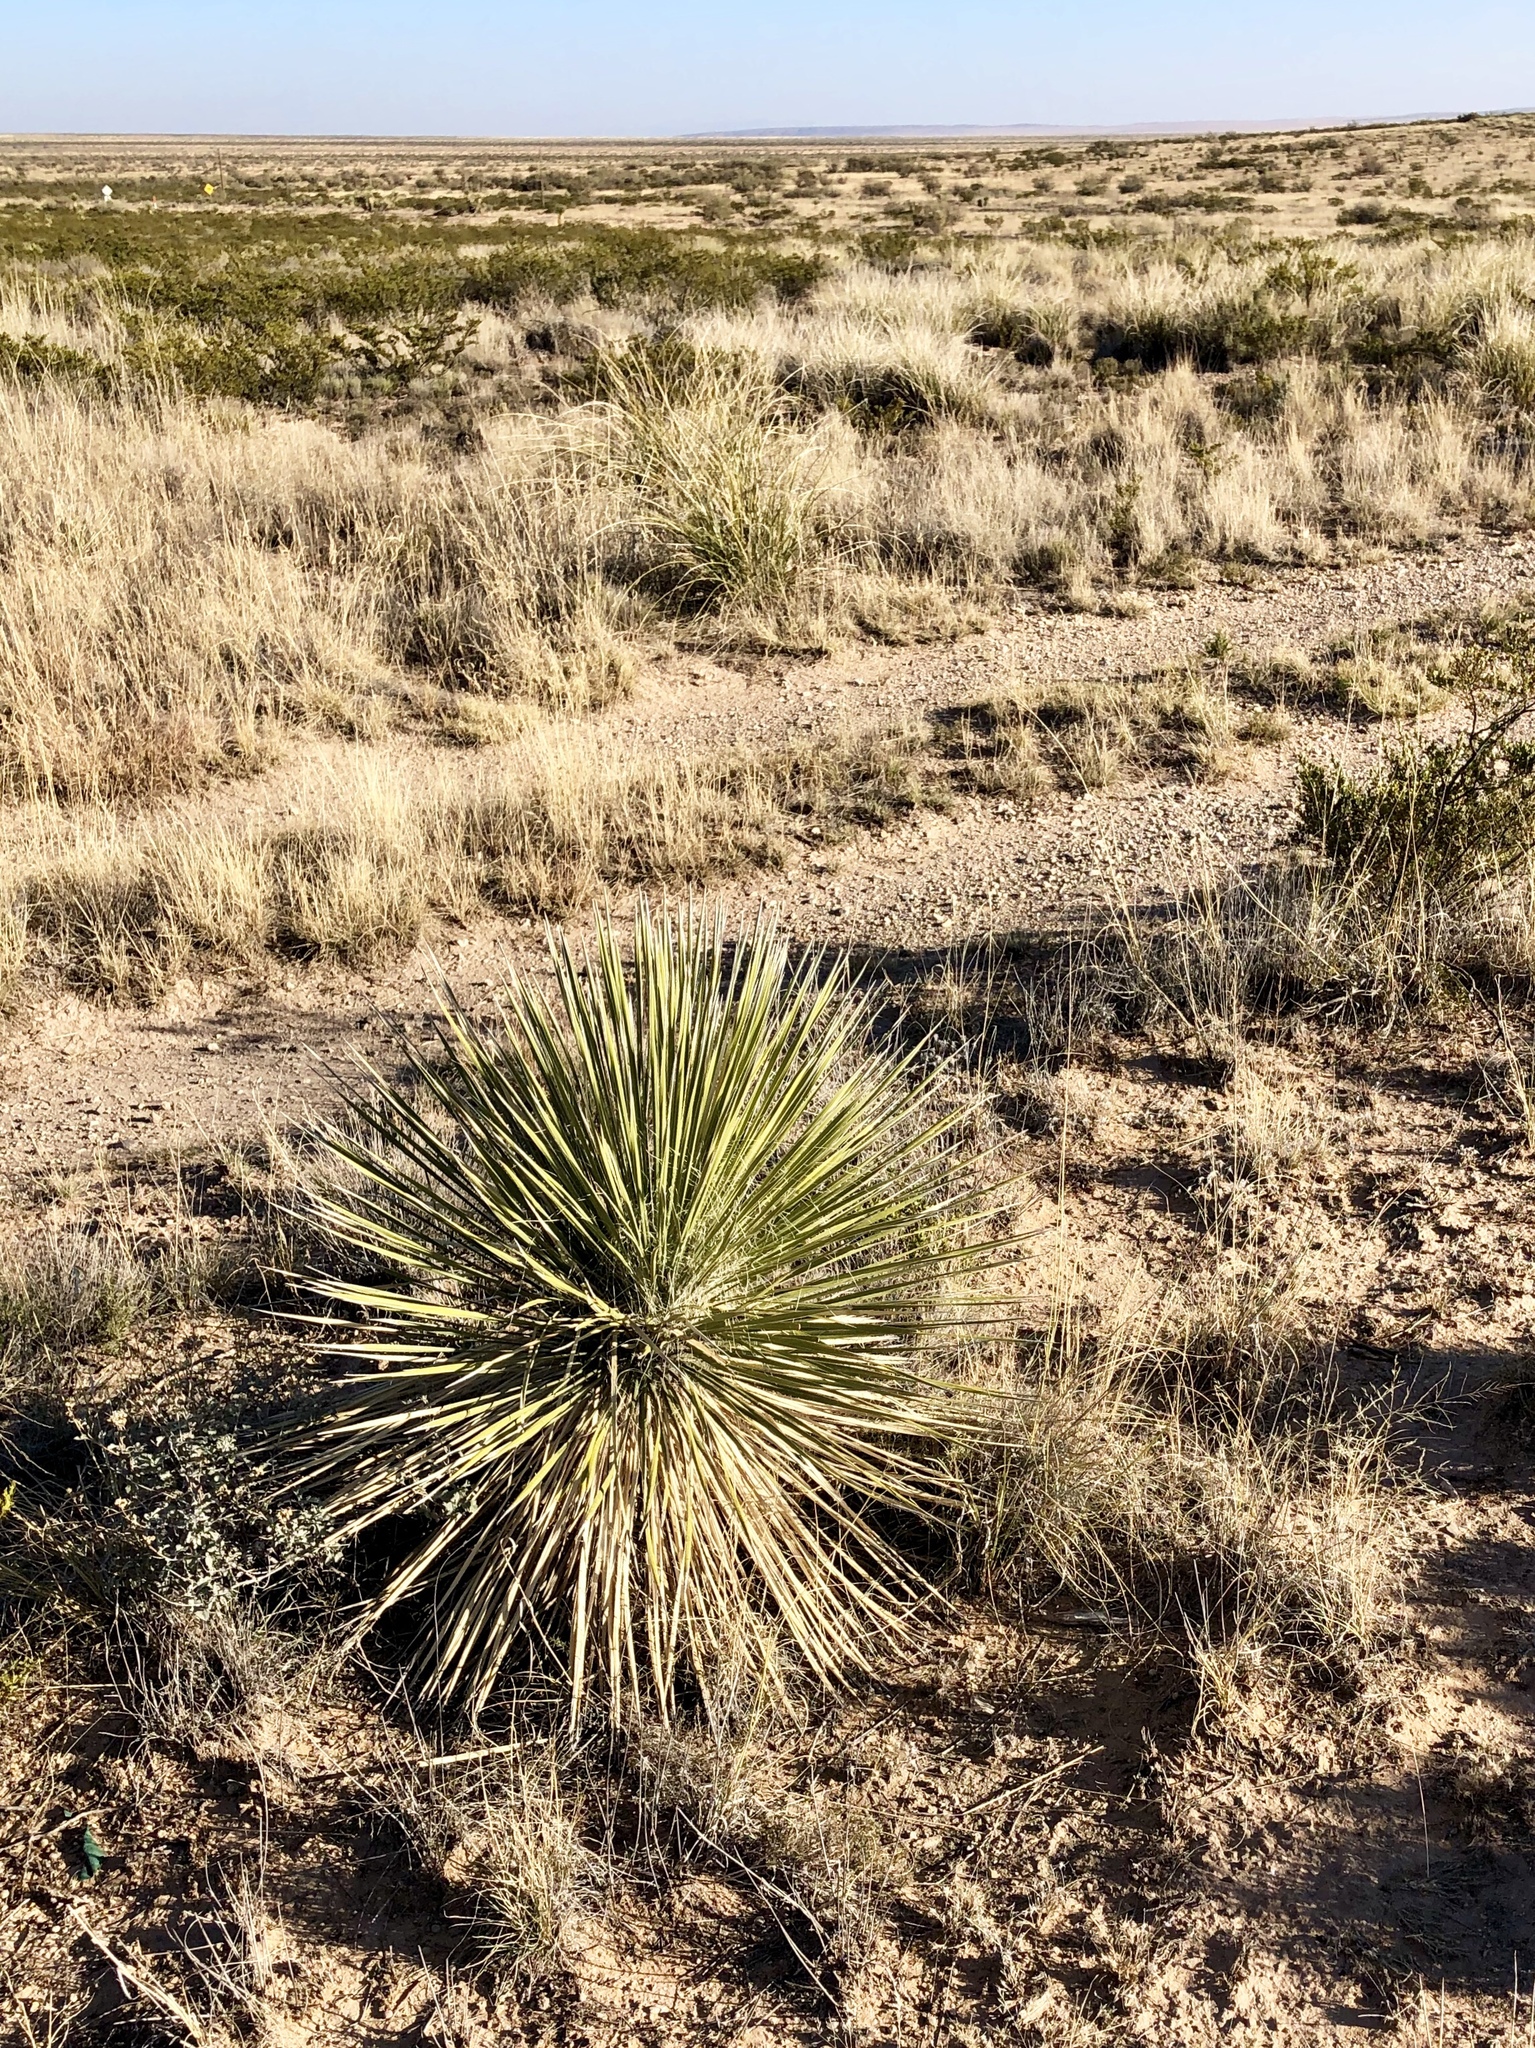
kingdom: Plantae
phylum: Tracheophyta
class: Liliopsida
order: Asparagales
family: Asparagaceae
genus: Dasylirion
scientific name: Dasylirion wheeleri
